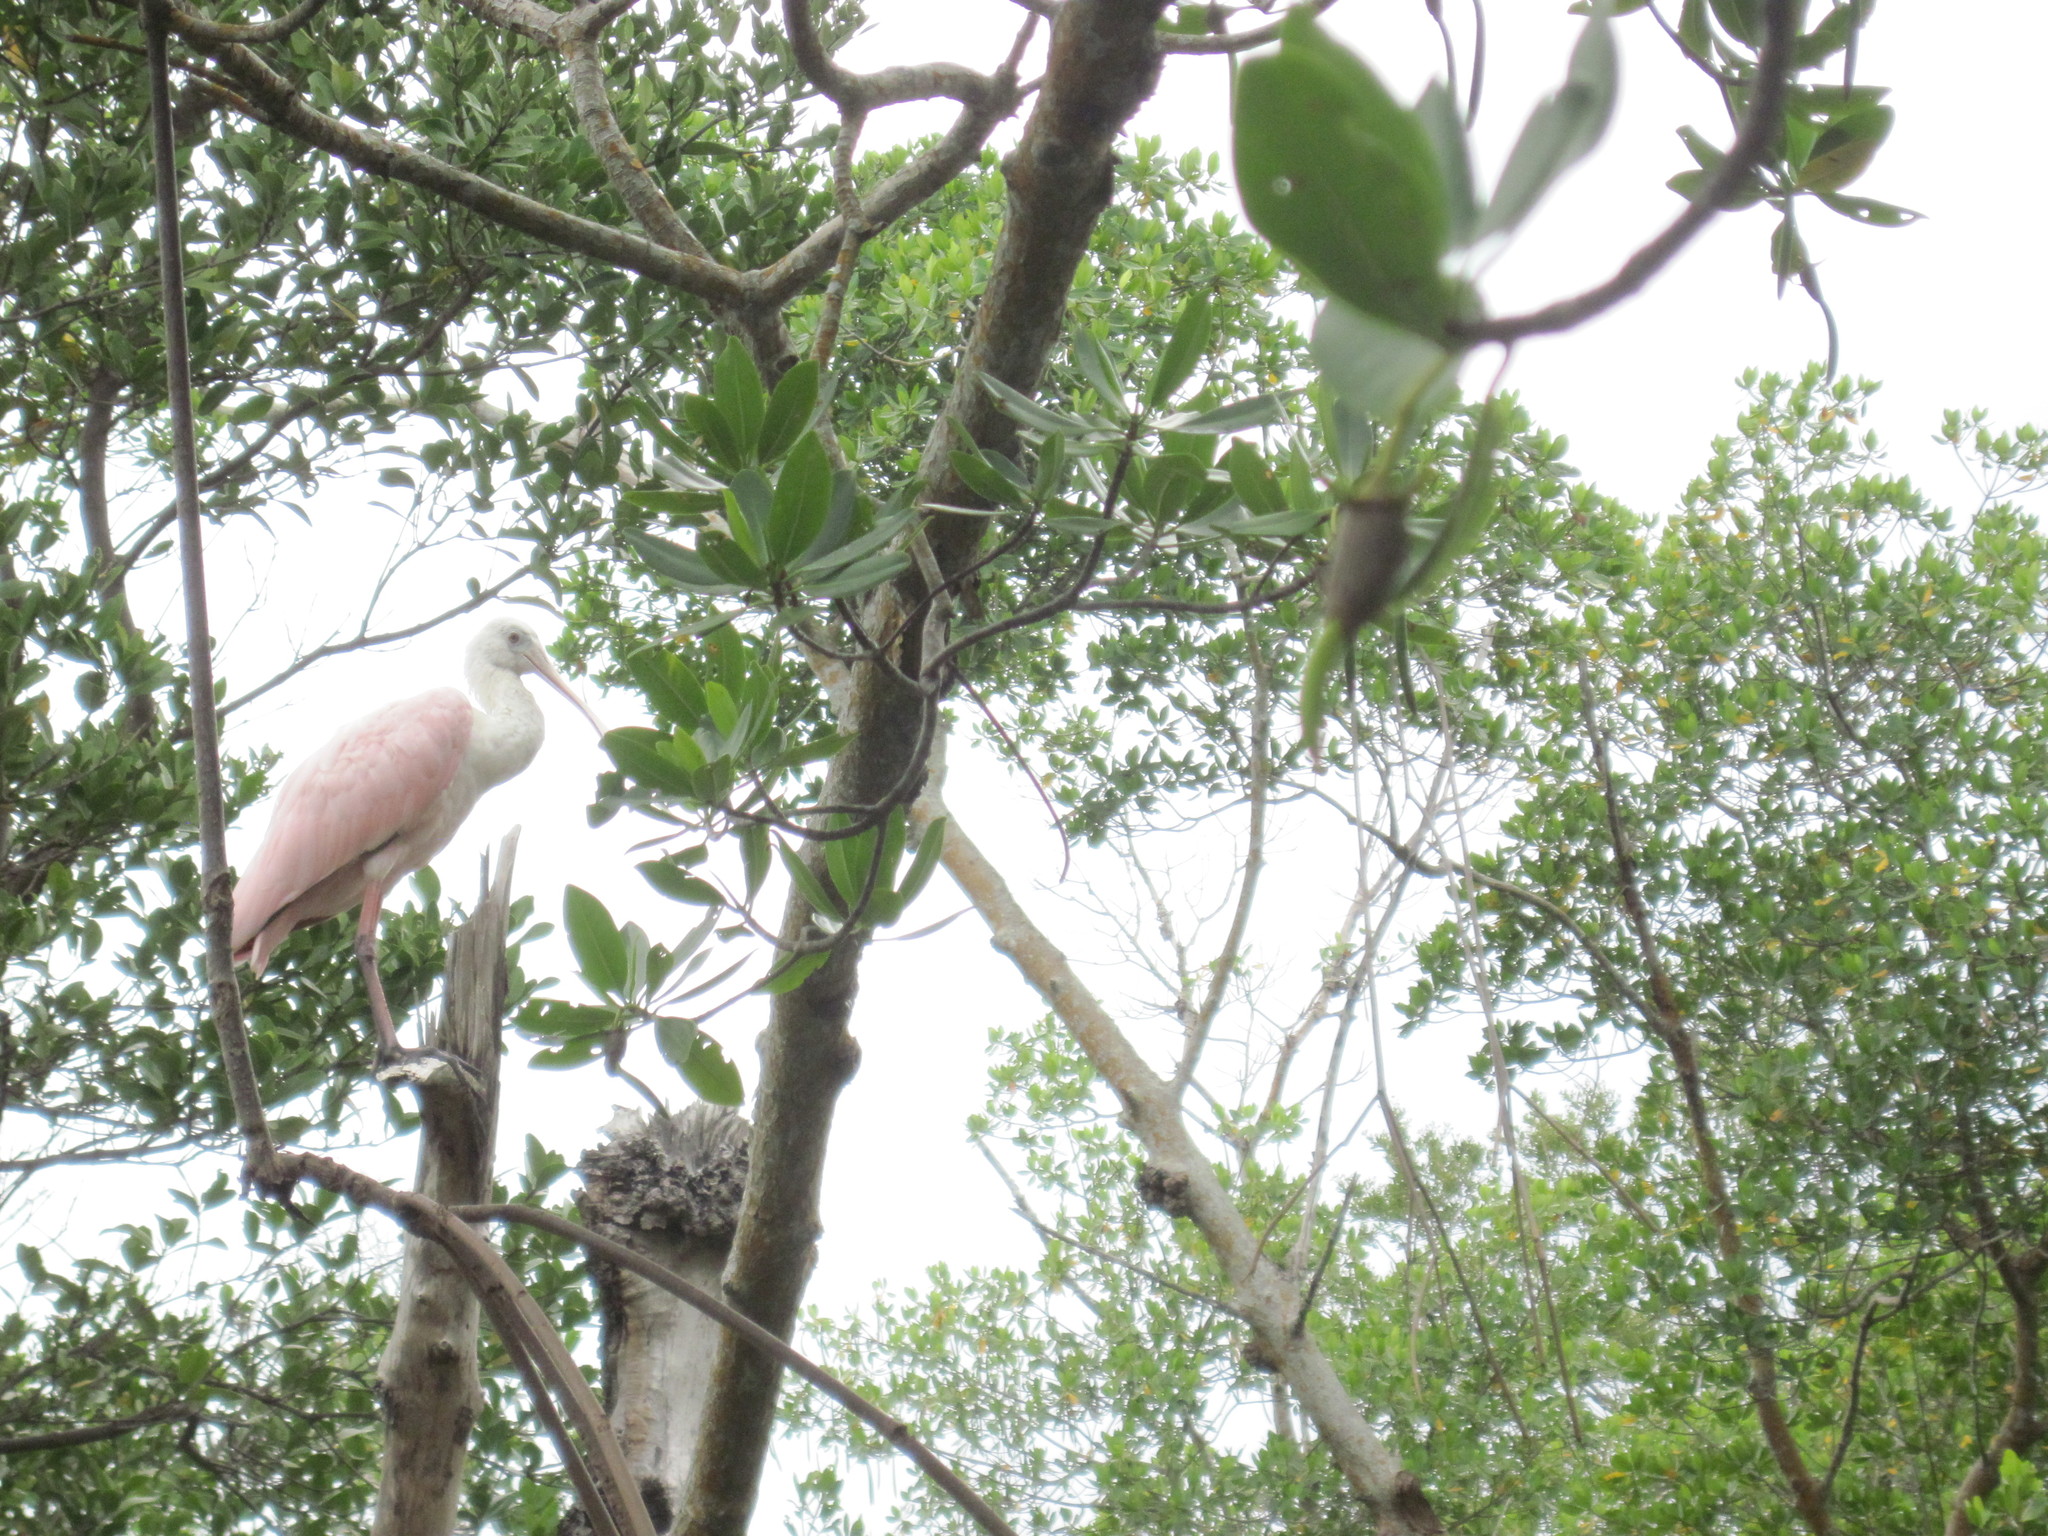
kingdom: Animalia
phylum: Chordata
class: Aves
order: Pelecaniformes
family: Threskiornithidae
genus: Platalea
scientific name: Platalea ajaja
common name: Roseate spoonbill
